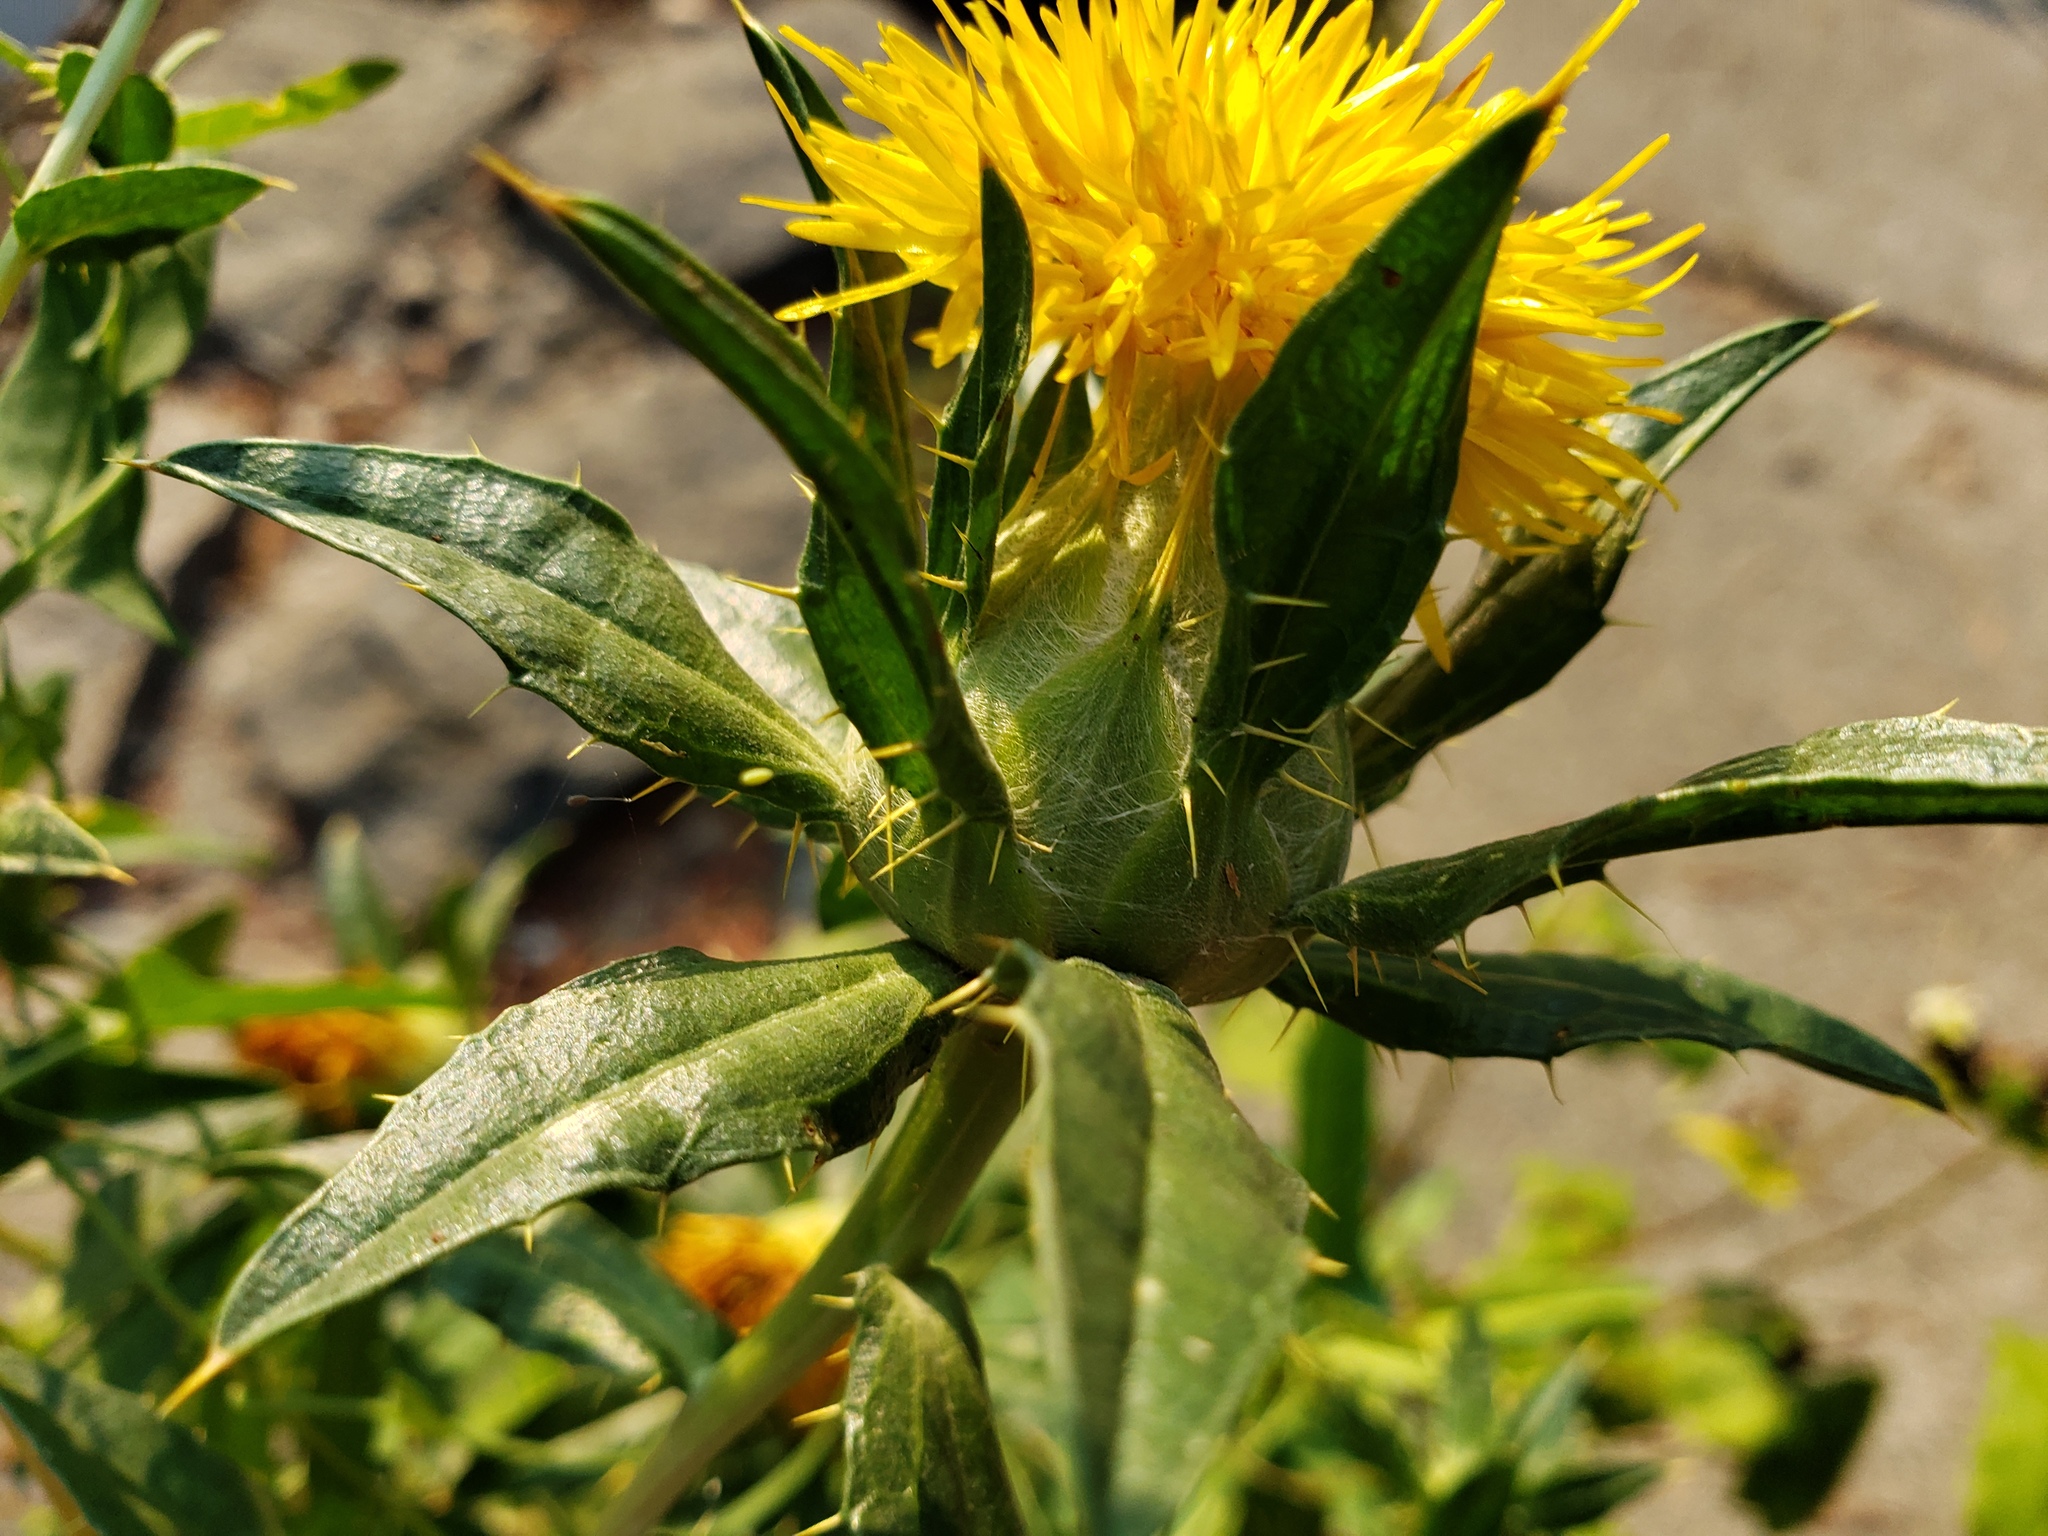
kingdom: Plantae
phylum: Tracheophyta
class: Magnoliopsida
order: Asterales
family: Asteraceae
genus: Carthamus
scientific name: Carthamus tinctorius
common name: Safflower
